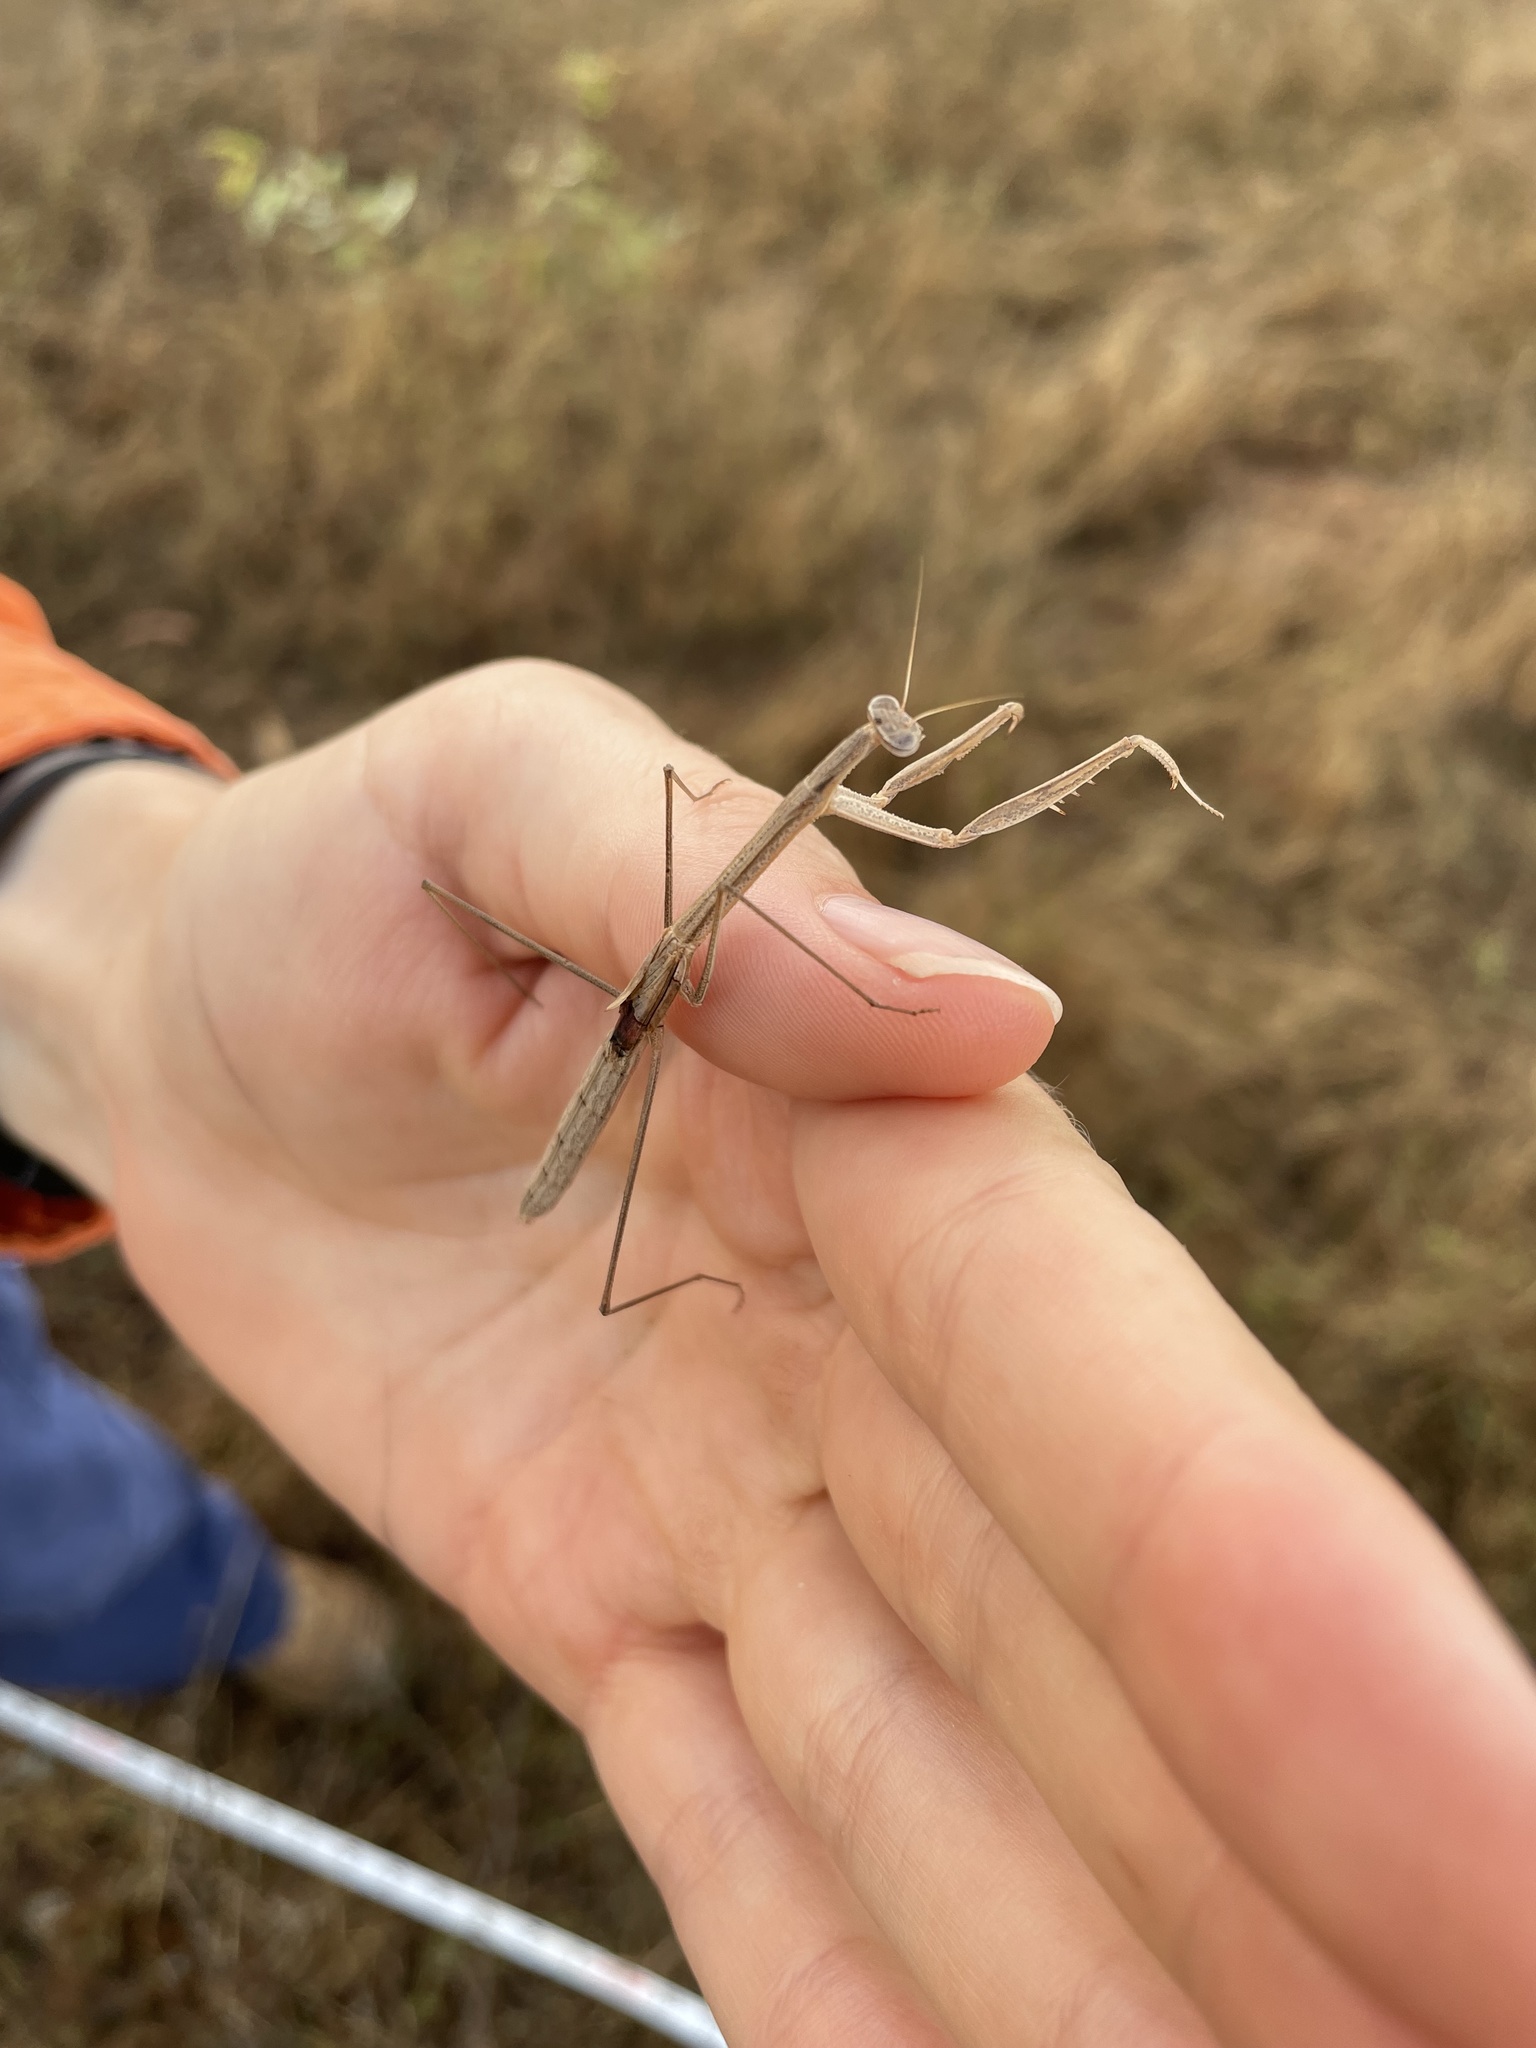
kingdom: Animalia
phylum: Arthropoda
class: Insecta
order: Mantodea
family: Mantidae
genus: Rhodomantis
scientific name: Rhodomantis helenae
